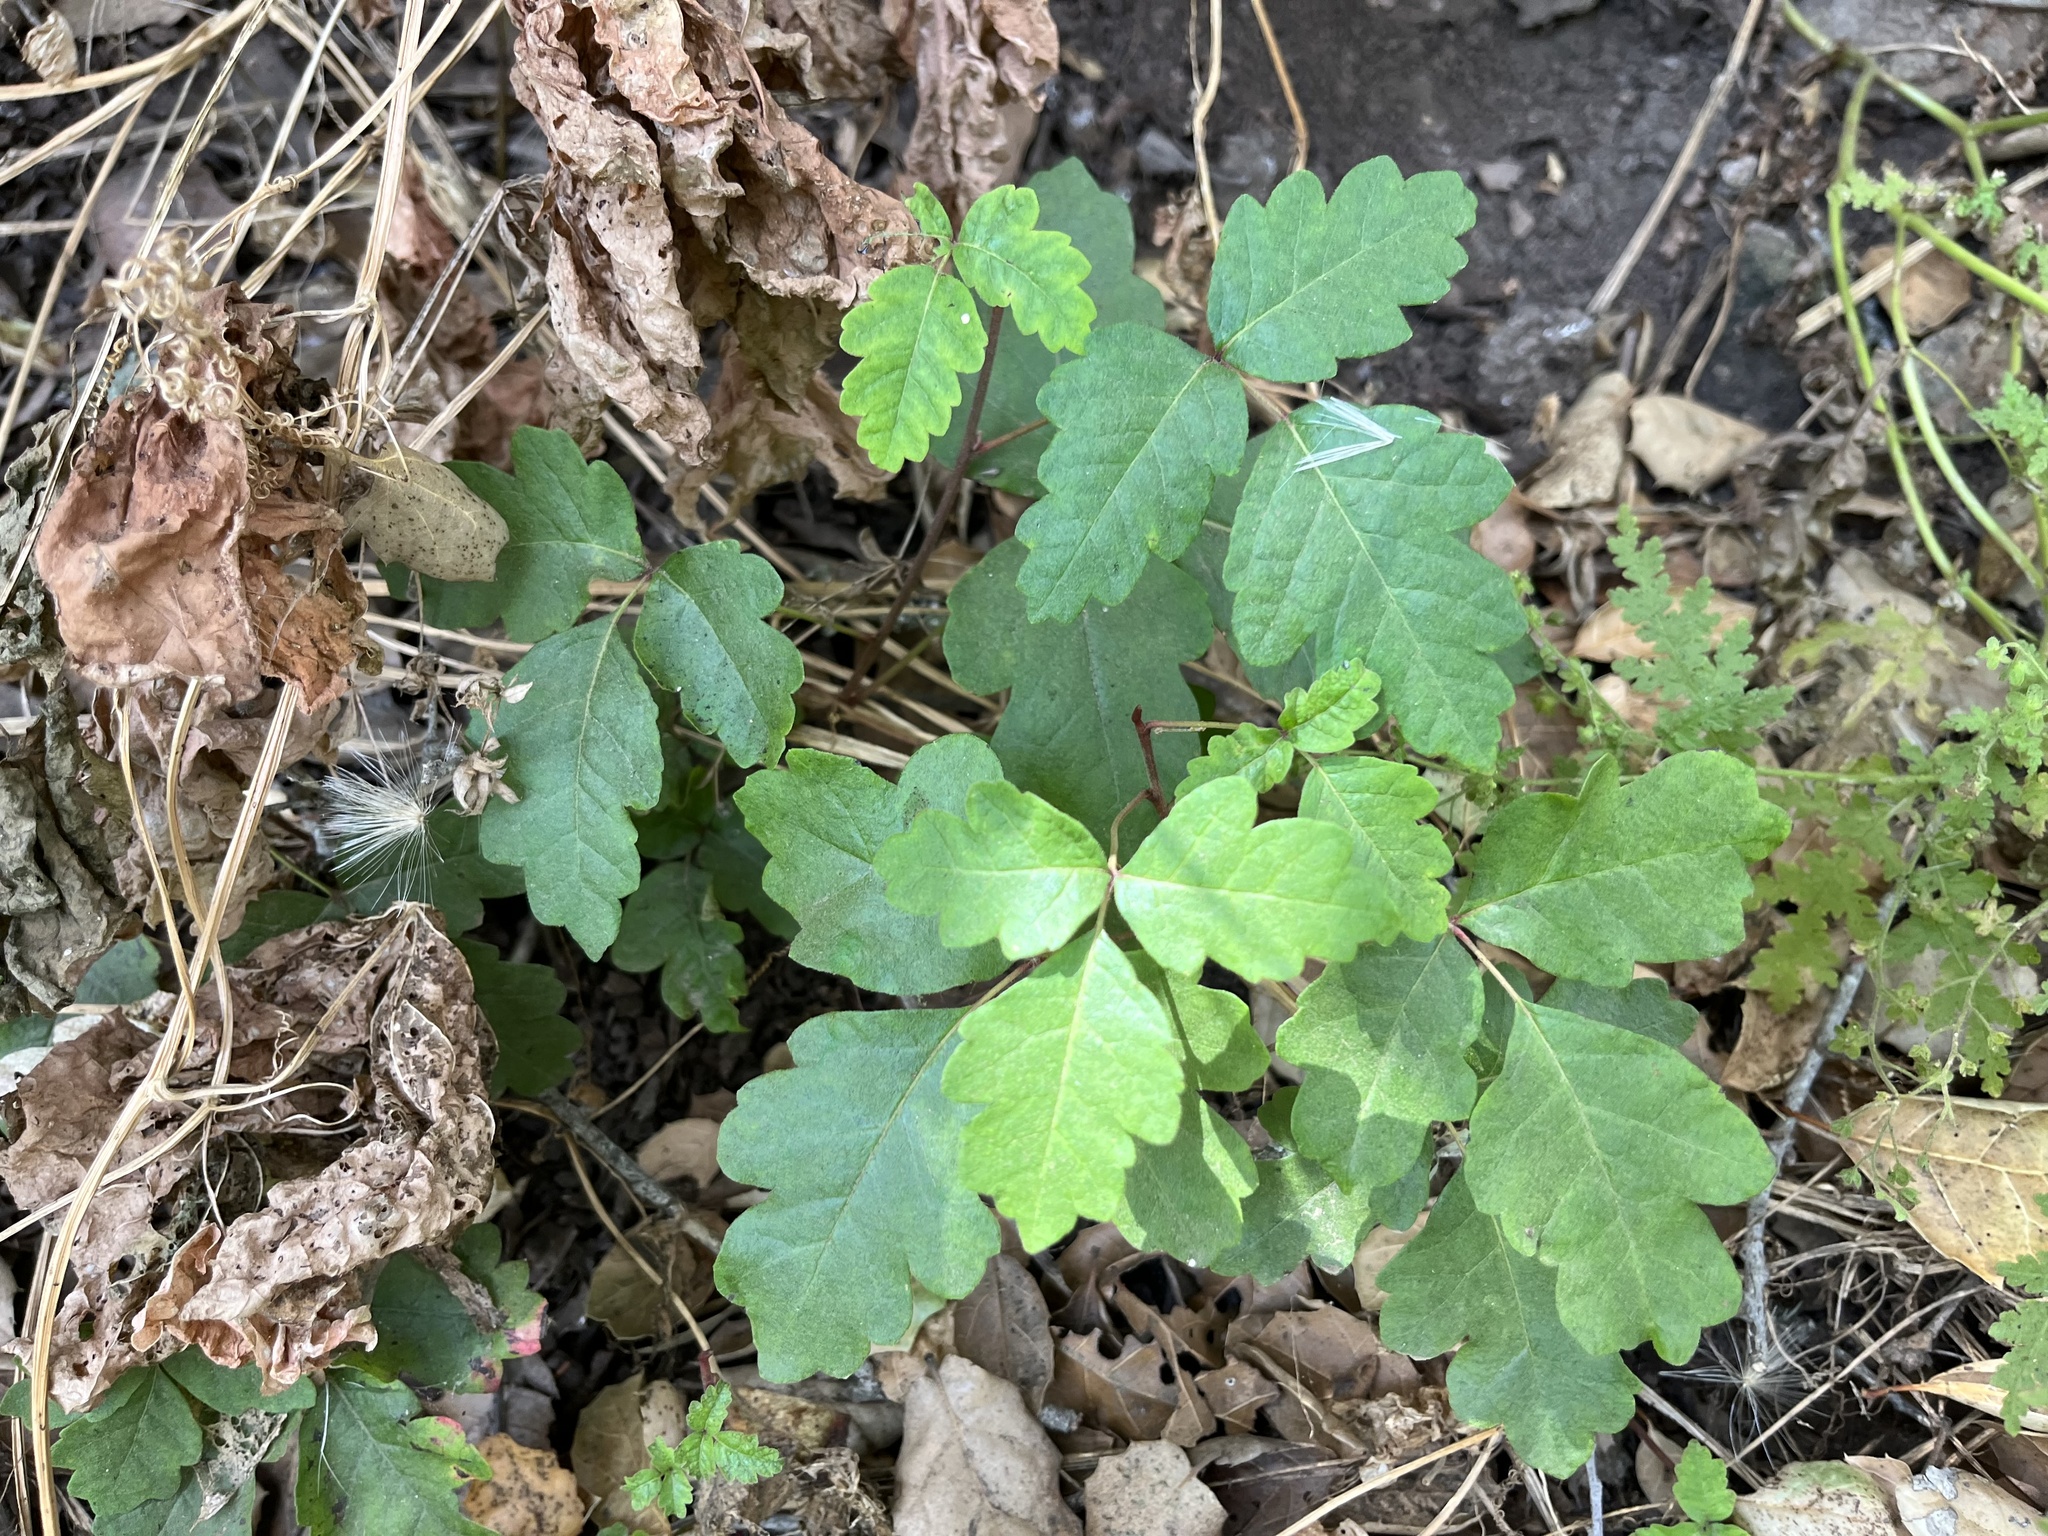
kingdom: Plantae
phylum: Tracheophyta
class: Magnoliopsida
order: Sapindales
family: Anacardiaceae
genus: Toxicodendron
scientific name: Toxicodendron diversilobum
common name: Pacific poison-oak
